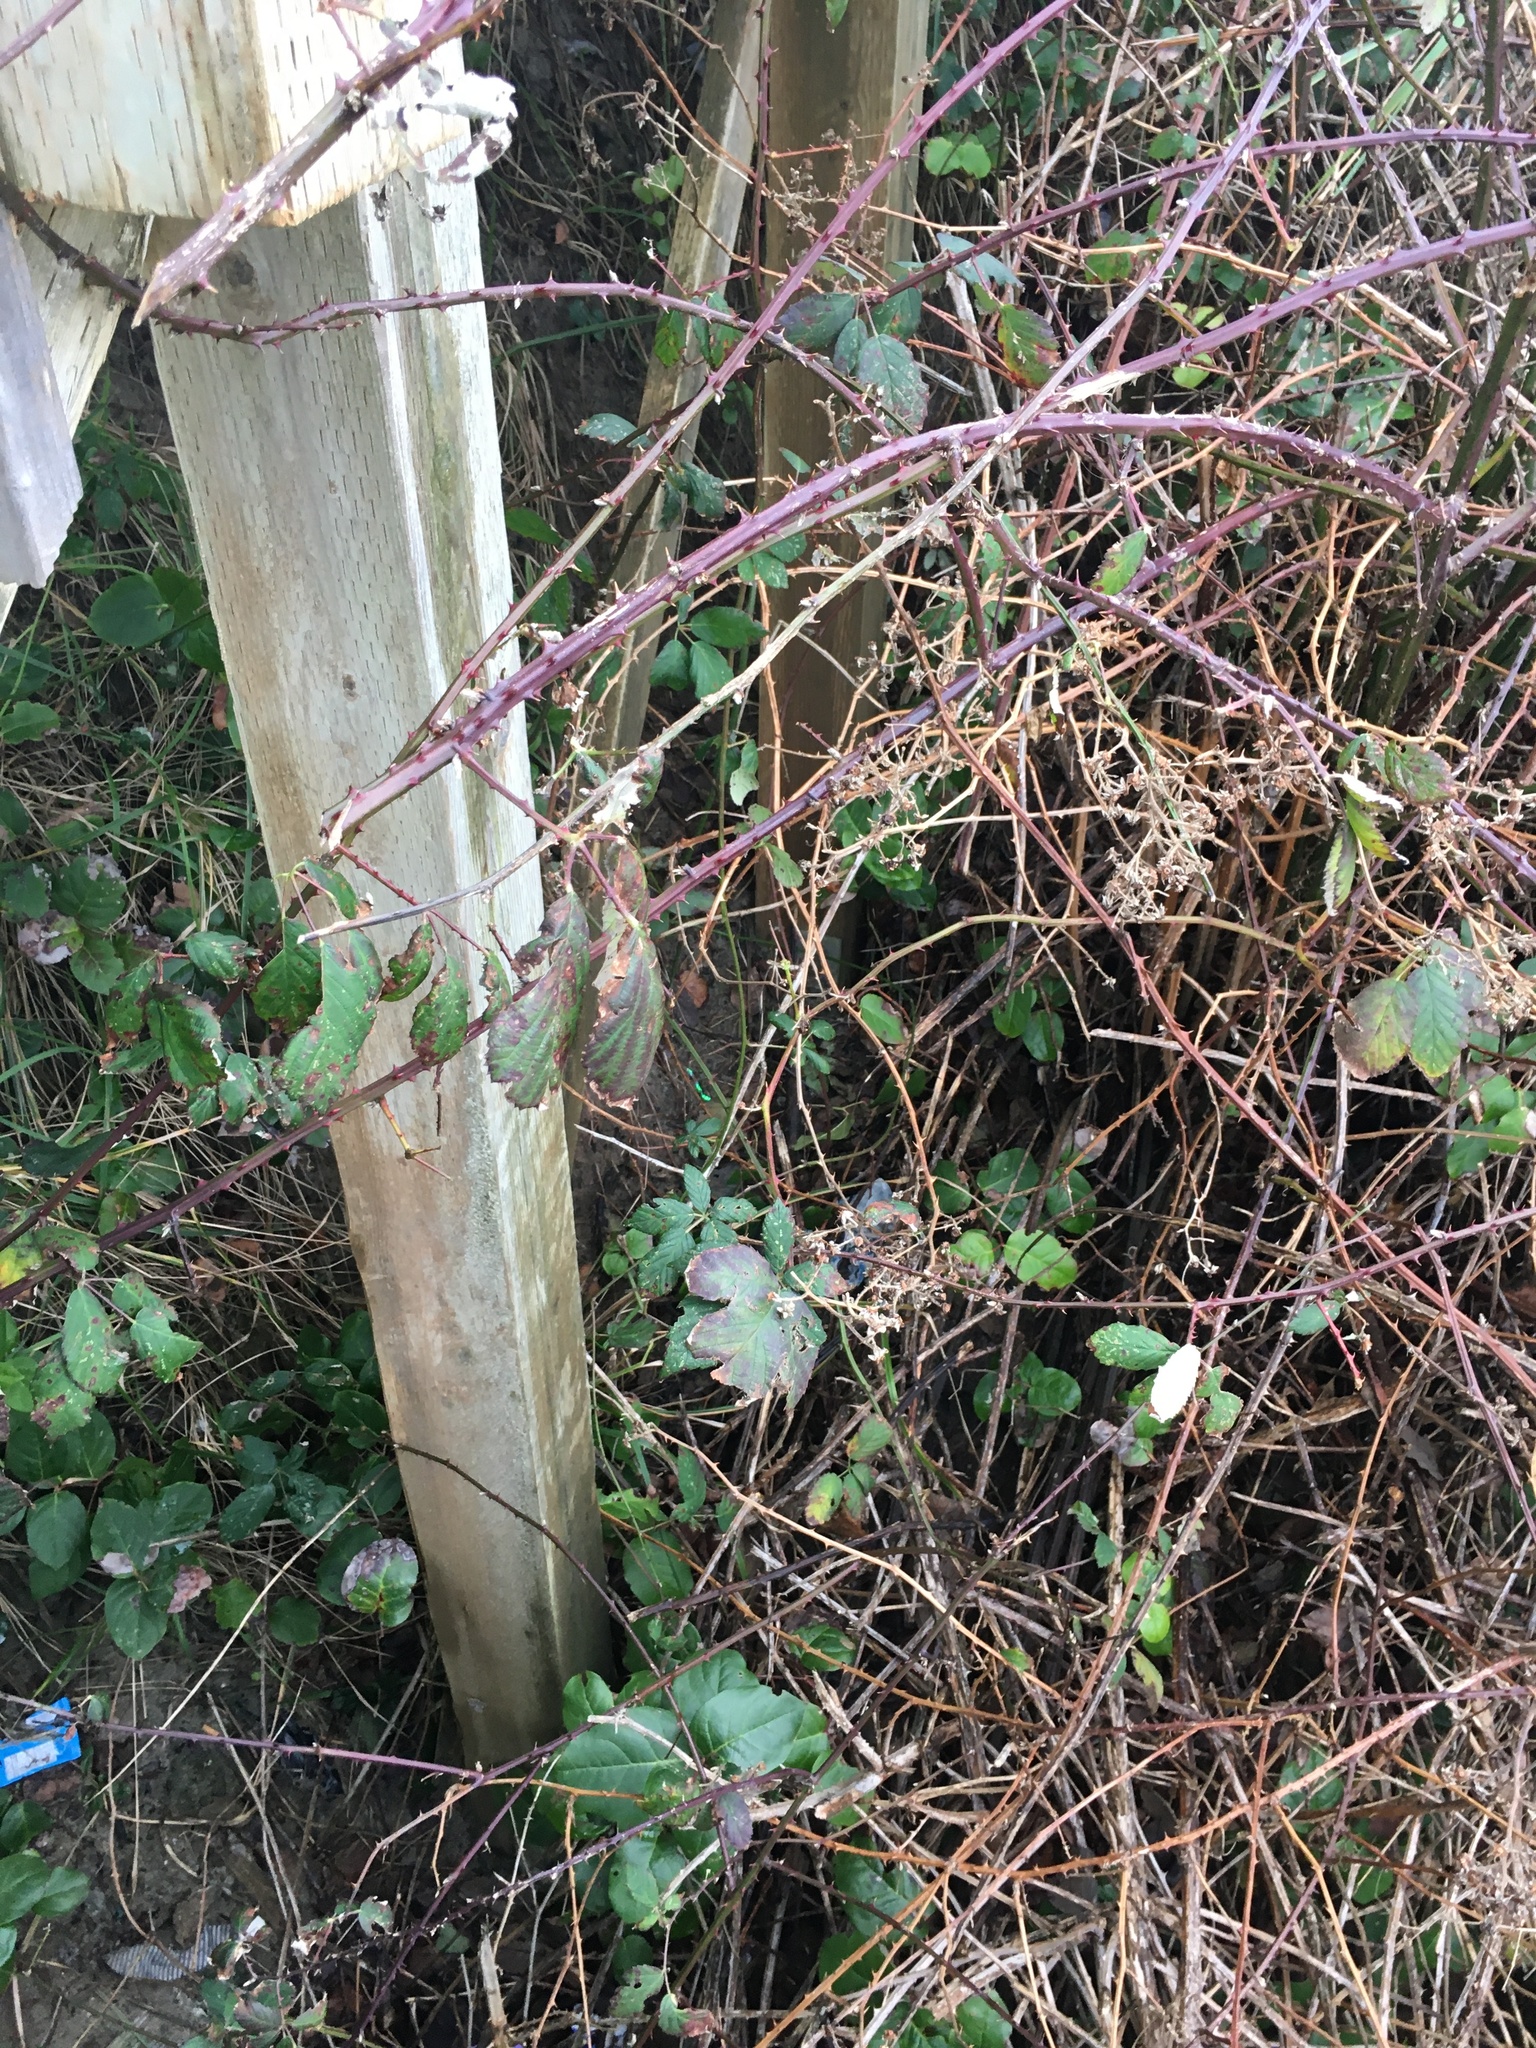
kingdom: Plantae
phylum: Tracheophyta
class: Magnoliopsida
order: Rosales
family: Rosaceae
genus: Rubus
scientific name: Rubus bifrons
